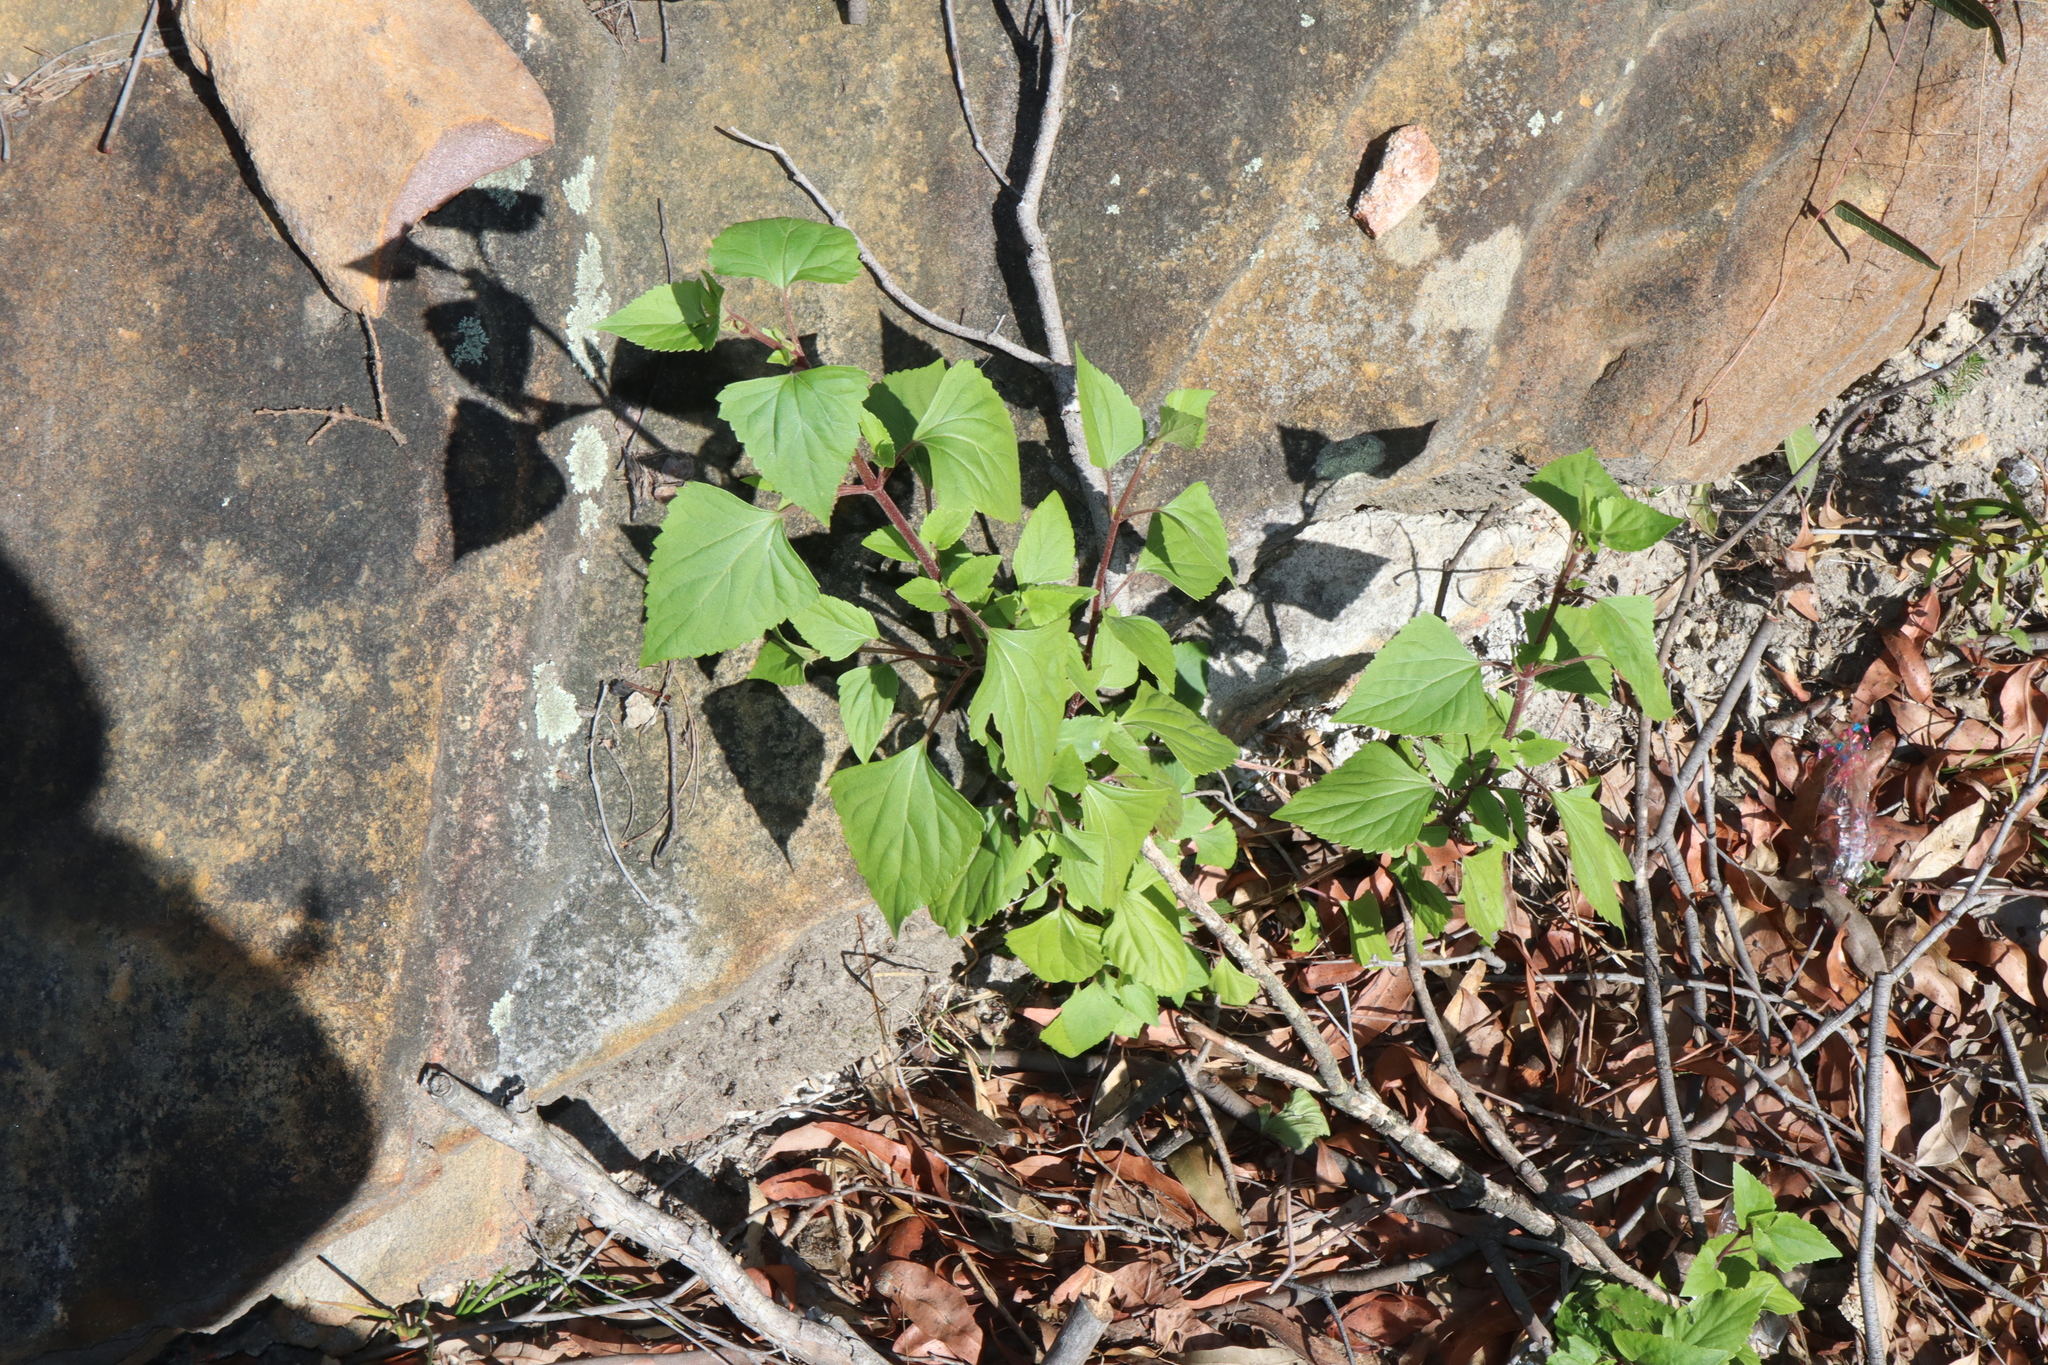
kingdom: Plantae
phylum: Tracheophyta
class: Magnoliopsida
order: Asterales
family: Asteraceae
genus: Ageratina
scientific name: Ageratina adenophora
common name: Sticky snakeroot
